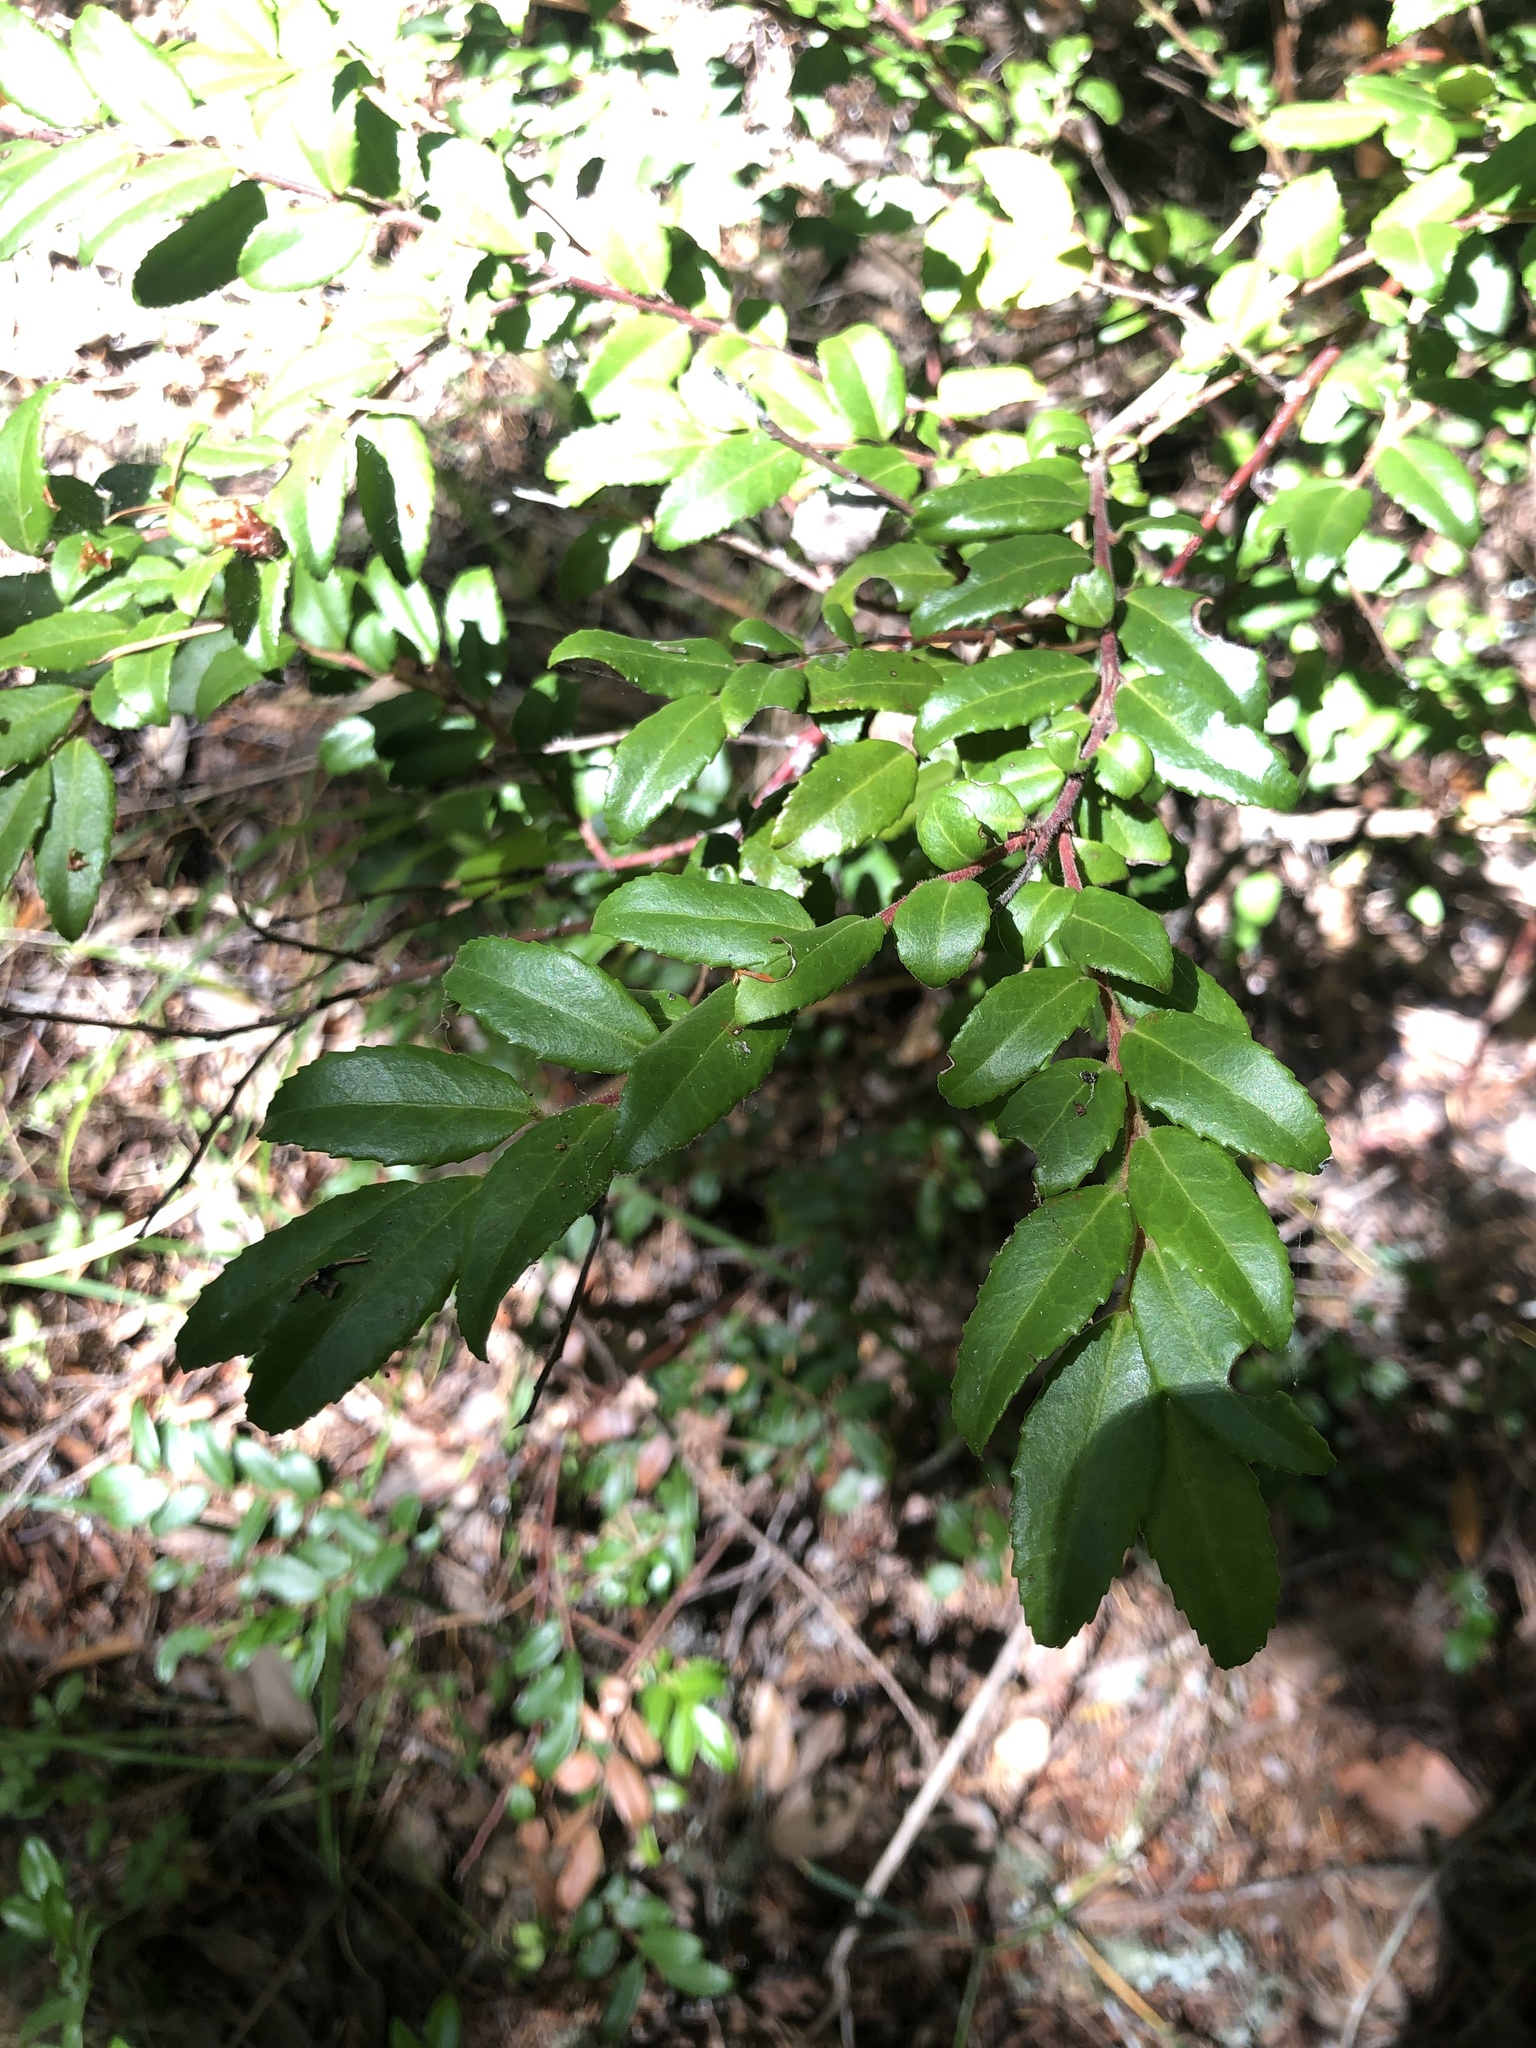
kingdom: Plantae
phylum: Tracheophyta
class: Magnoliopsida
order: Ericales
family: Ericaceae
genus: Vaccinium
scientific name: Vaccinium ovatum
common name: California-huckleberry
